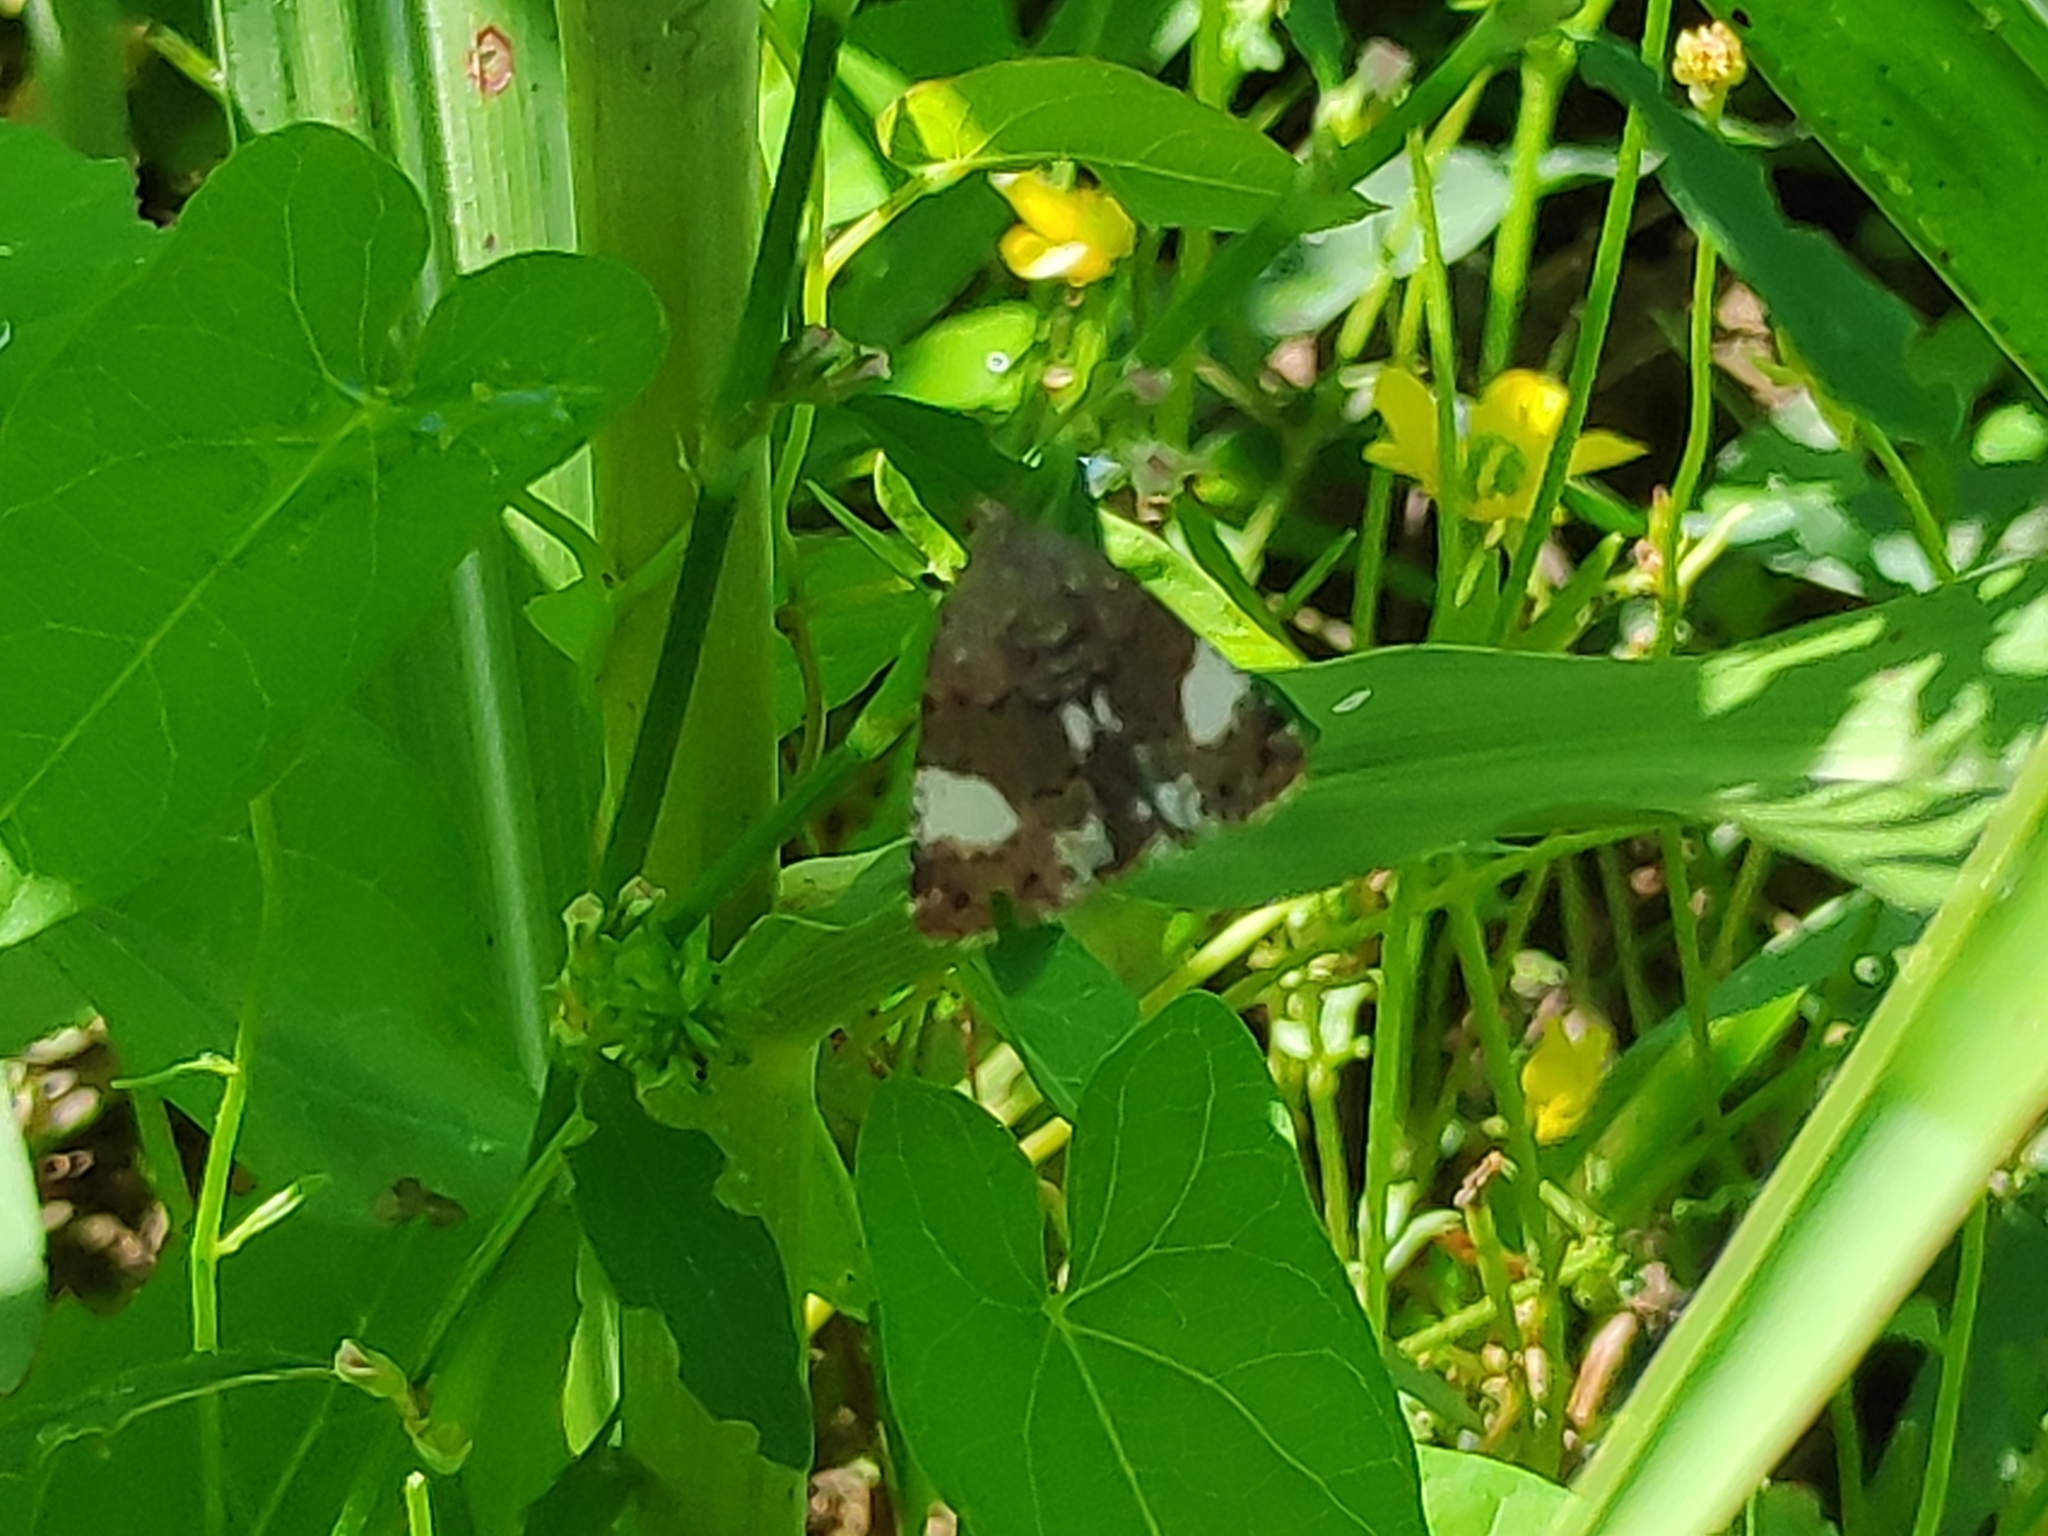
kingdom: Animalia
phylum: Arthropoda
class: Insecta
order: Lepidoptera
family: Erebidae
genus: Tyta
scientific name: Tyta luctuosa
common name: Four-spotted
